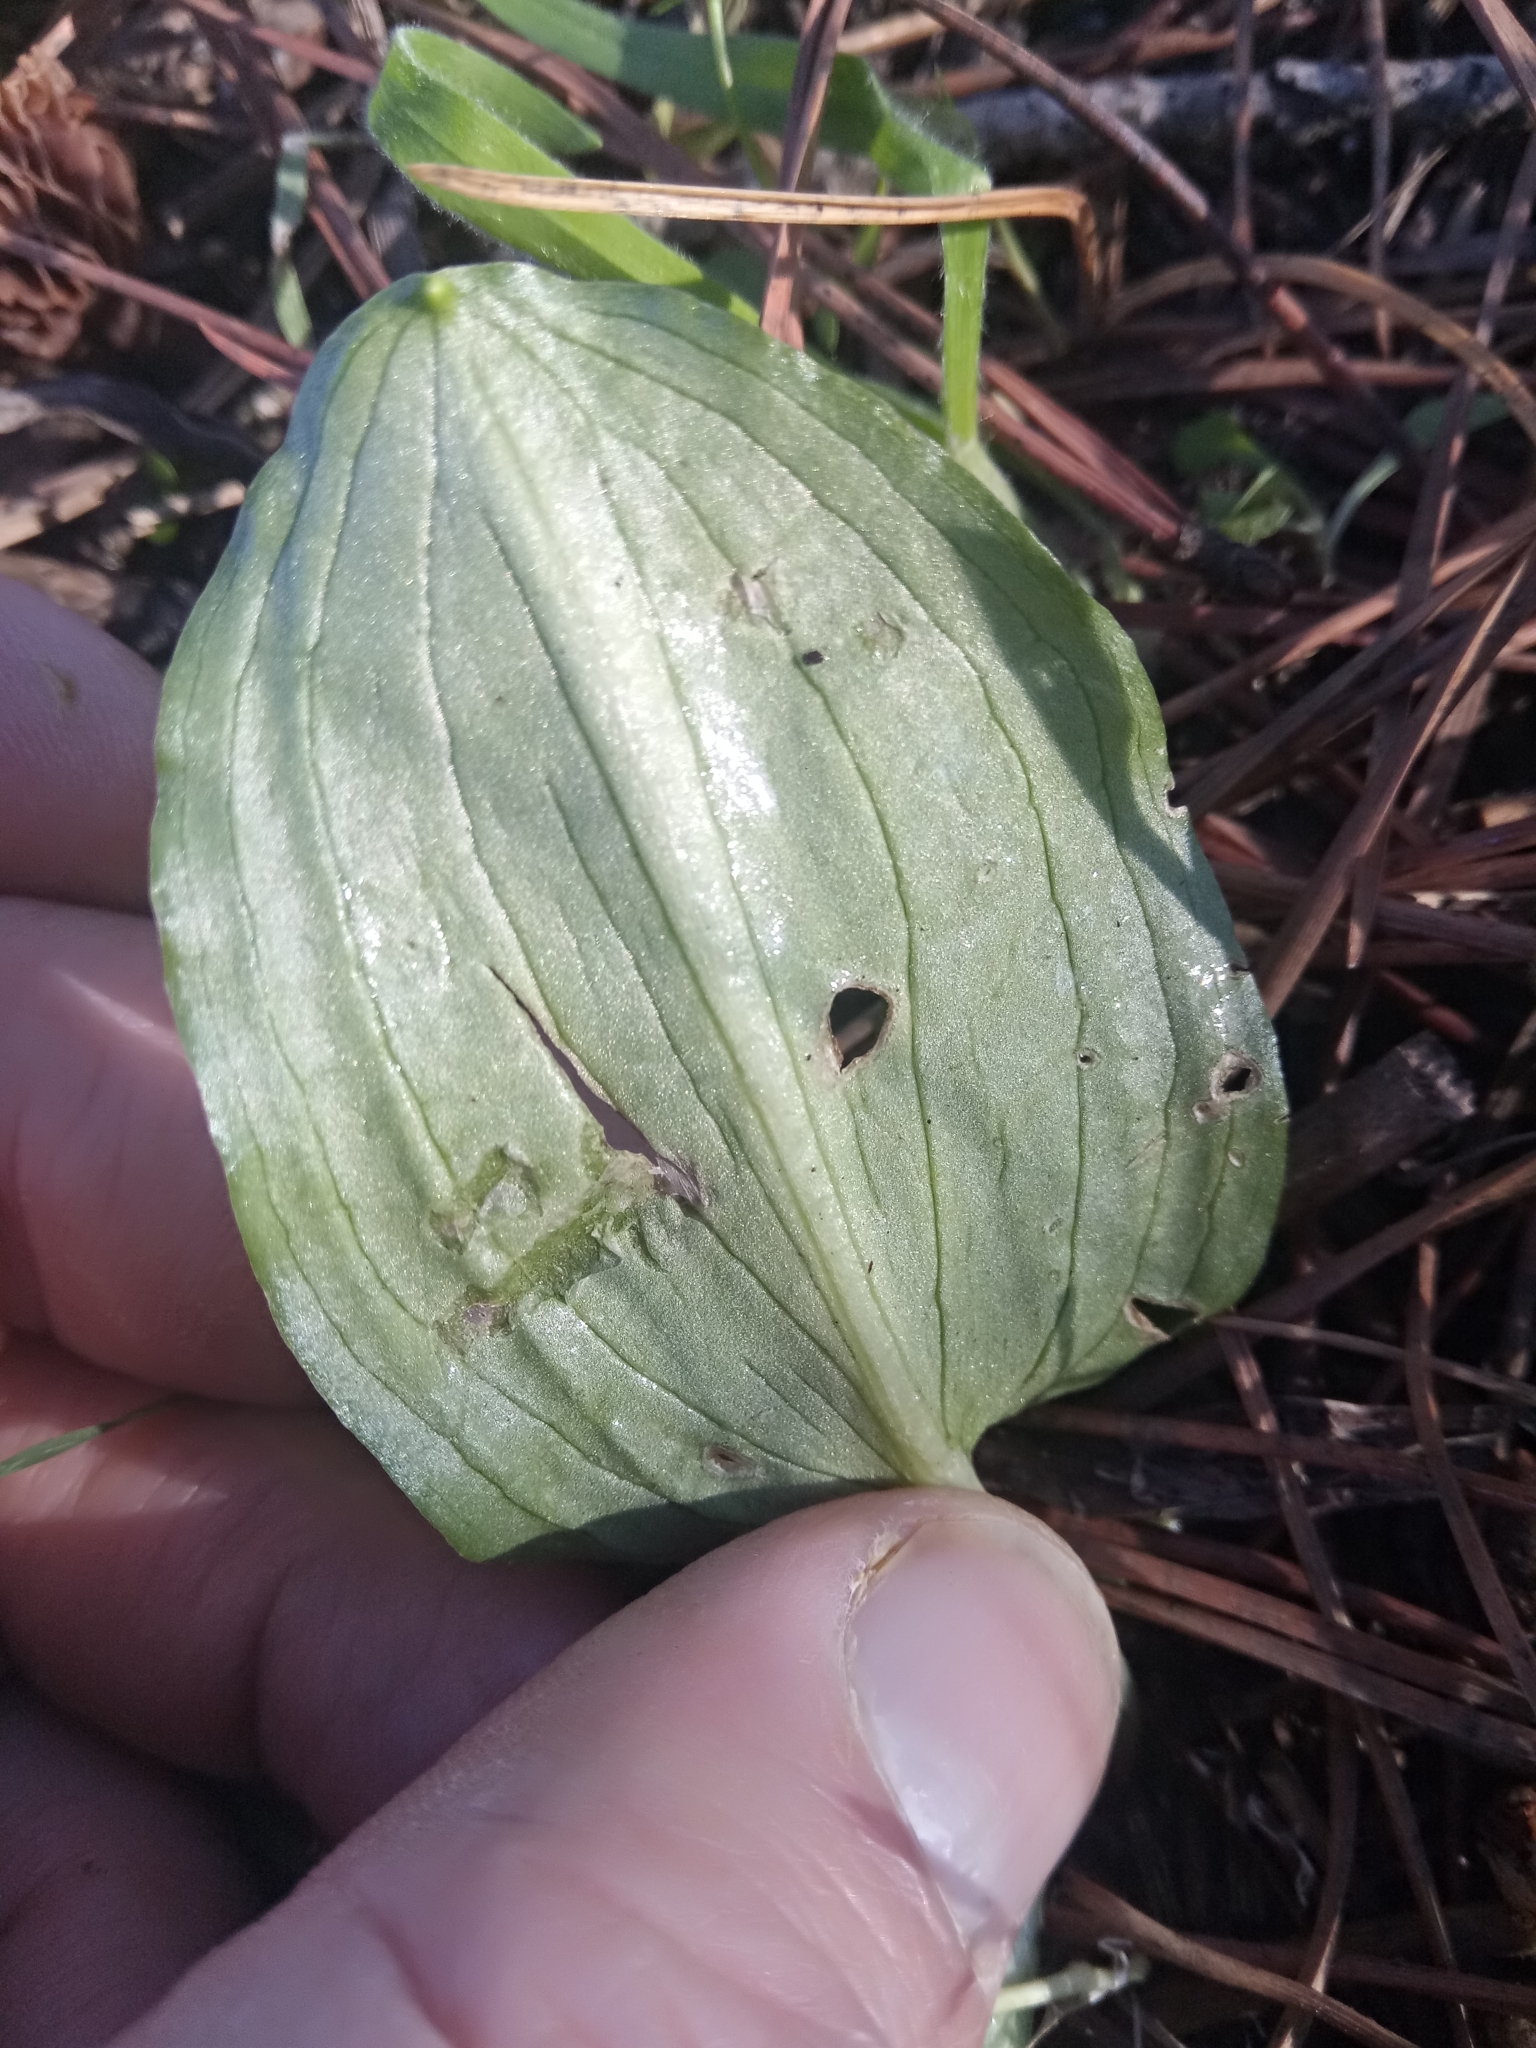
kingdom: Plantae
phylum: Tracheophyta
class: Liliopsida
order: Alismatales
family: Araceae
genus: Ambrosina
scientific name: Ambrosina bassii
